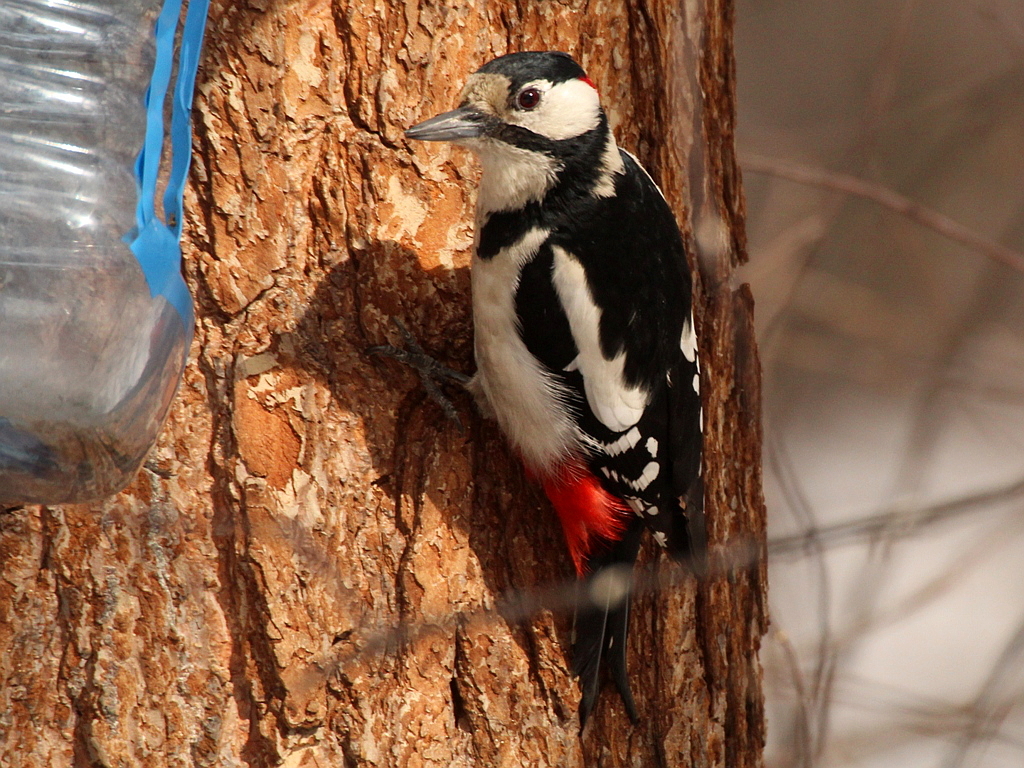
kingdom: Animalia
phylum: Chordata
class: Aves
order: Piciformes
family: Picidae
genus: Dendrocopos
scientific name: Dendrocopos major
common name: Great spotted woodpecker
